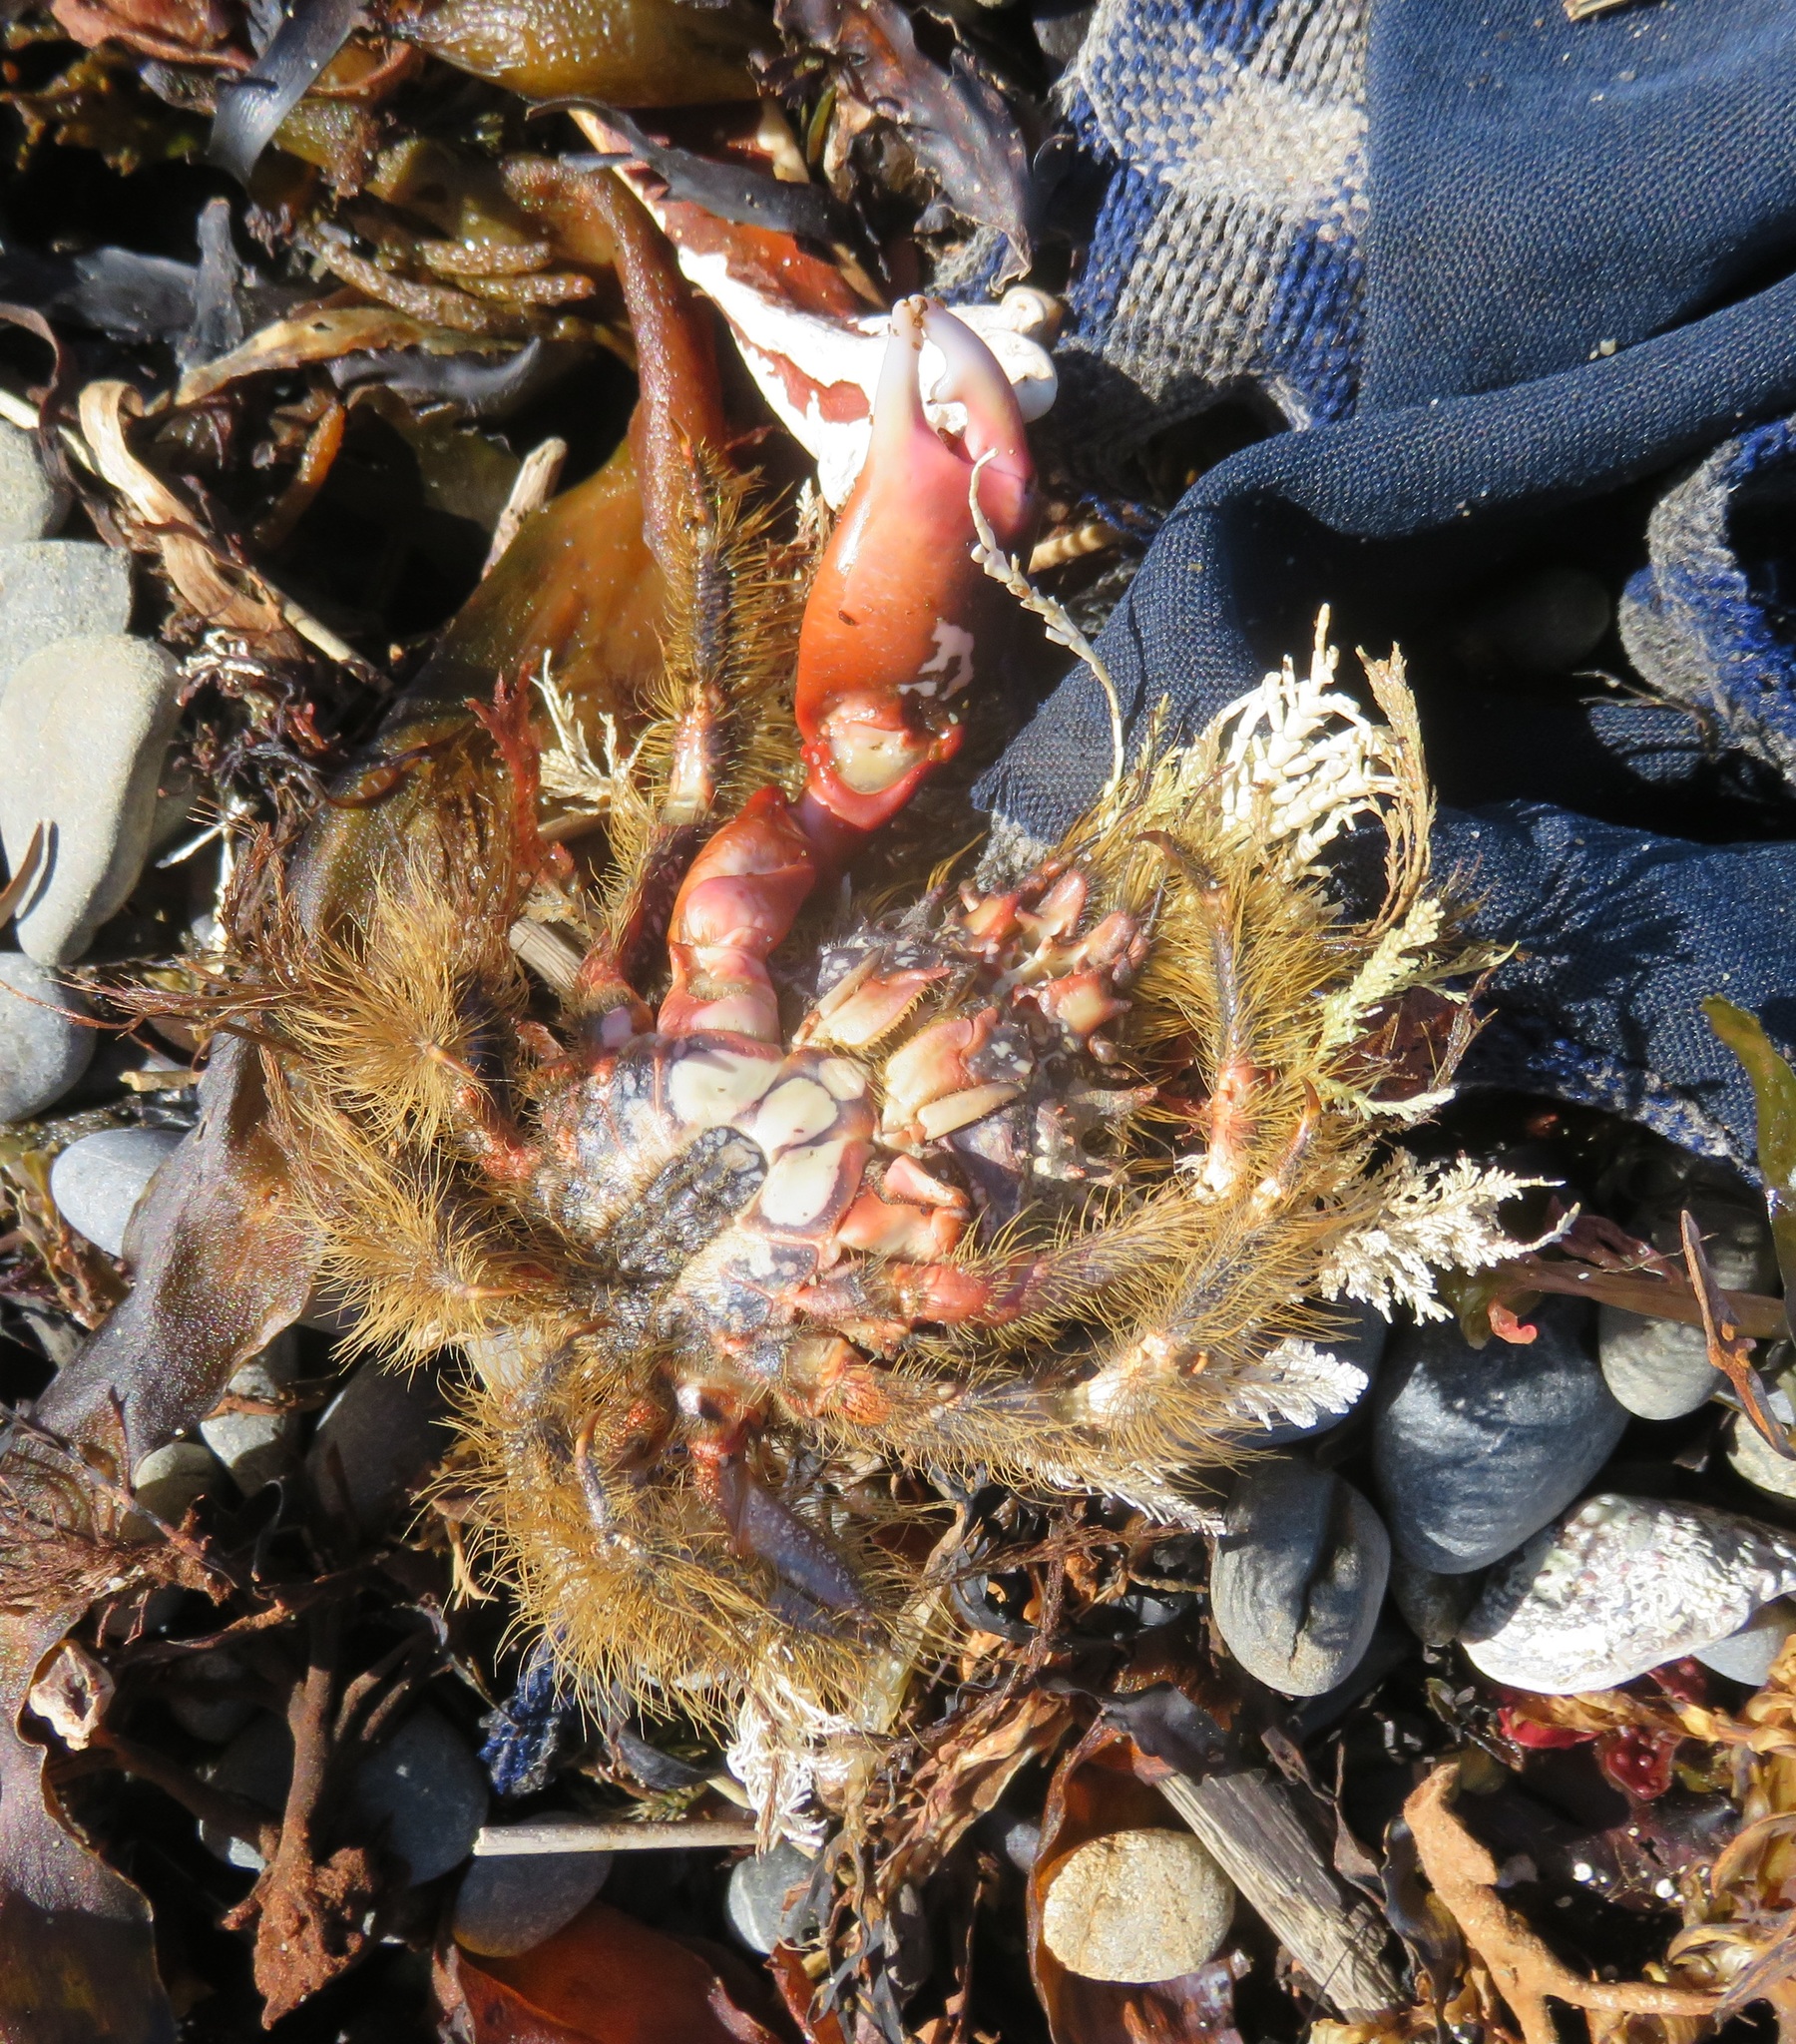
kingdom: Animalia
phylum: Arthropoda
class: Malacostraca
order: Decapoda
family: Majidae
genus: Notomithrax
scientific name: Notomithrax ursus
